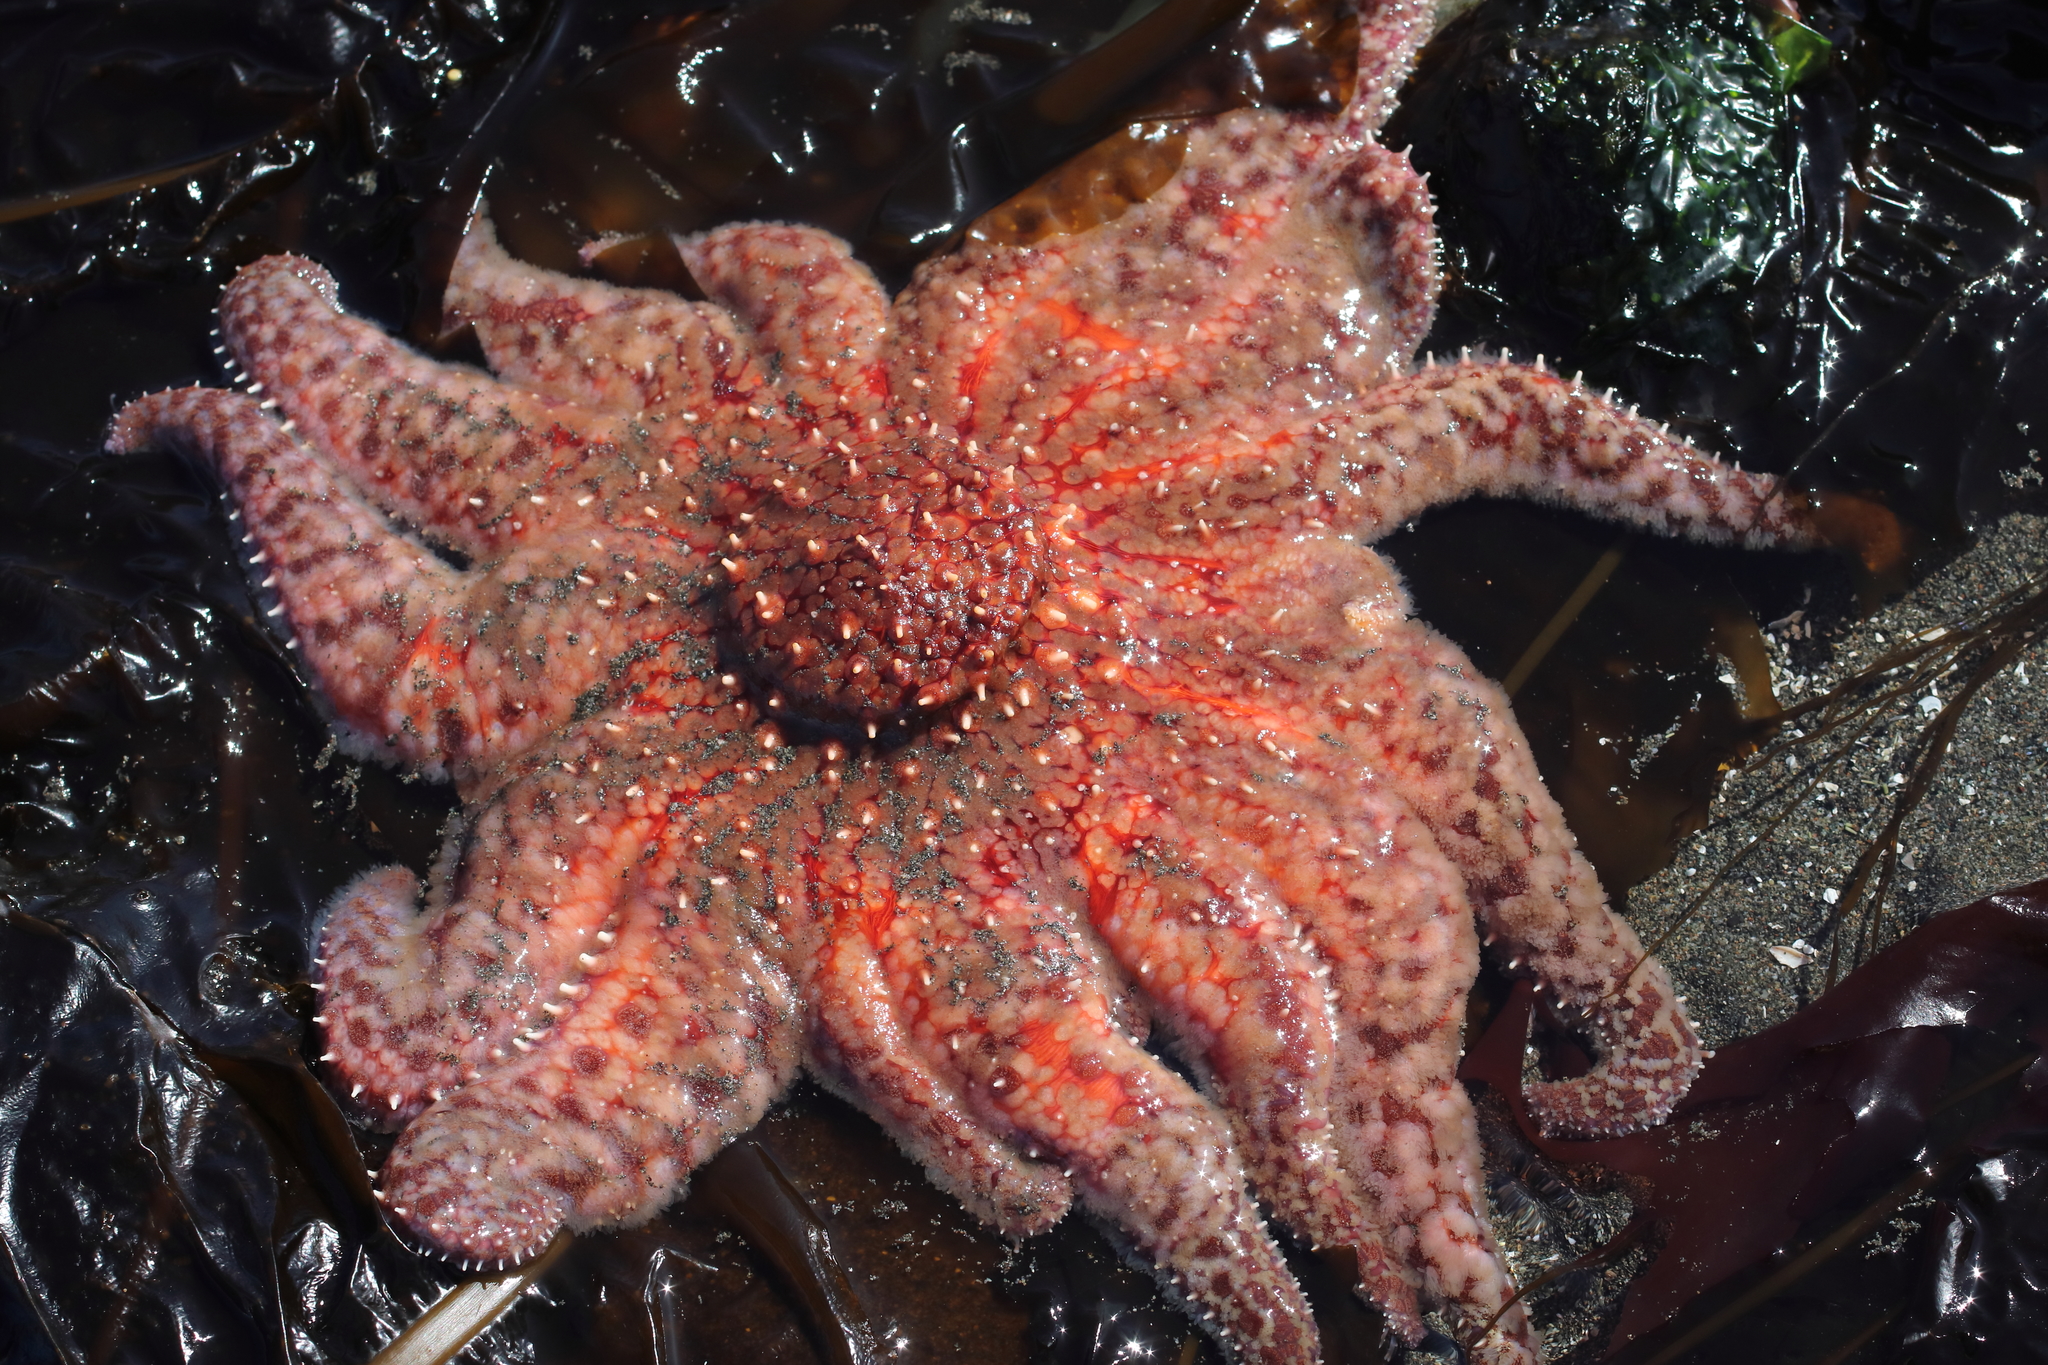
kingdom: Animalia
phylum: Echinodermata
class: Asteroidea
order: Forcipulatida
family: Asteriidae
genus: Pycnopodia
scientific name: Pycnopodia helianthoides
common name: Rag mop
